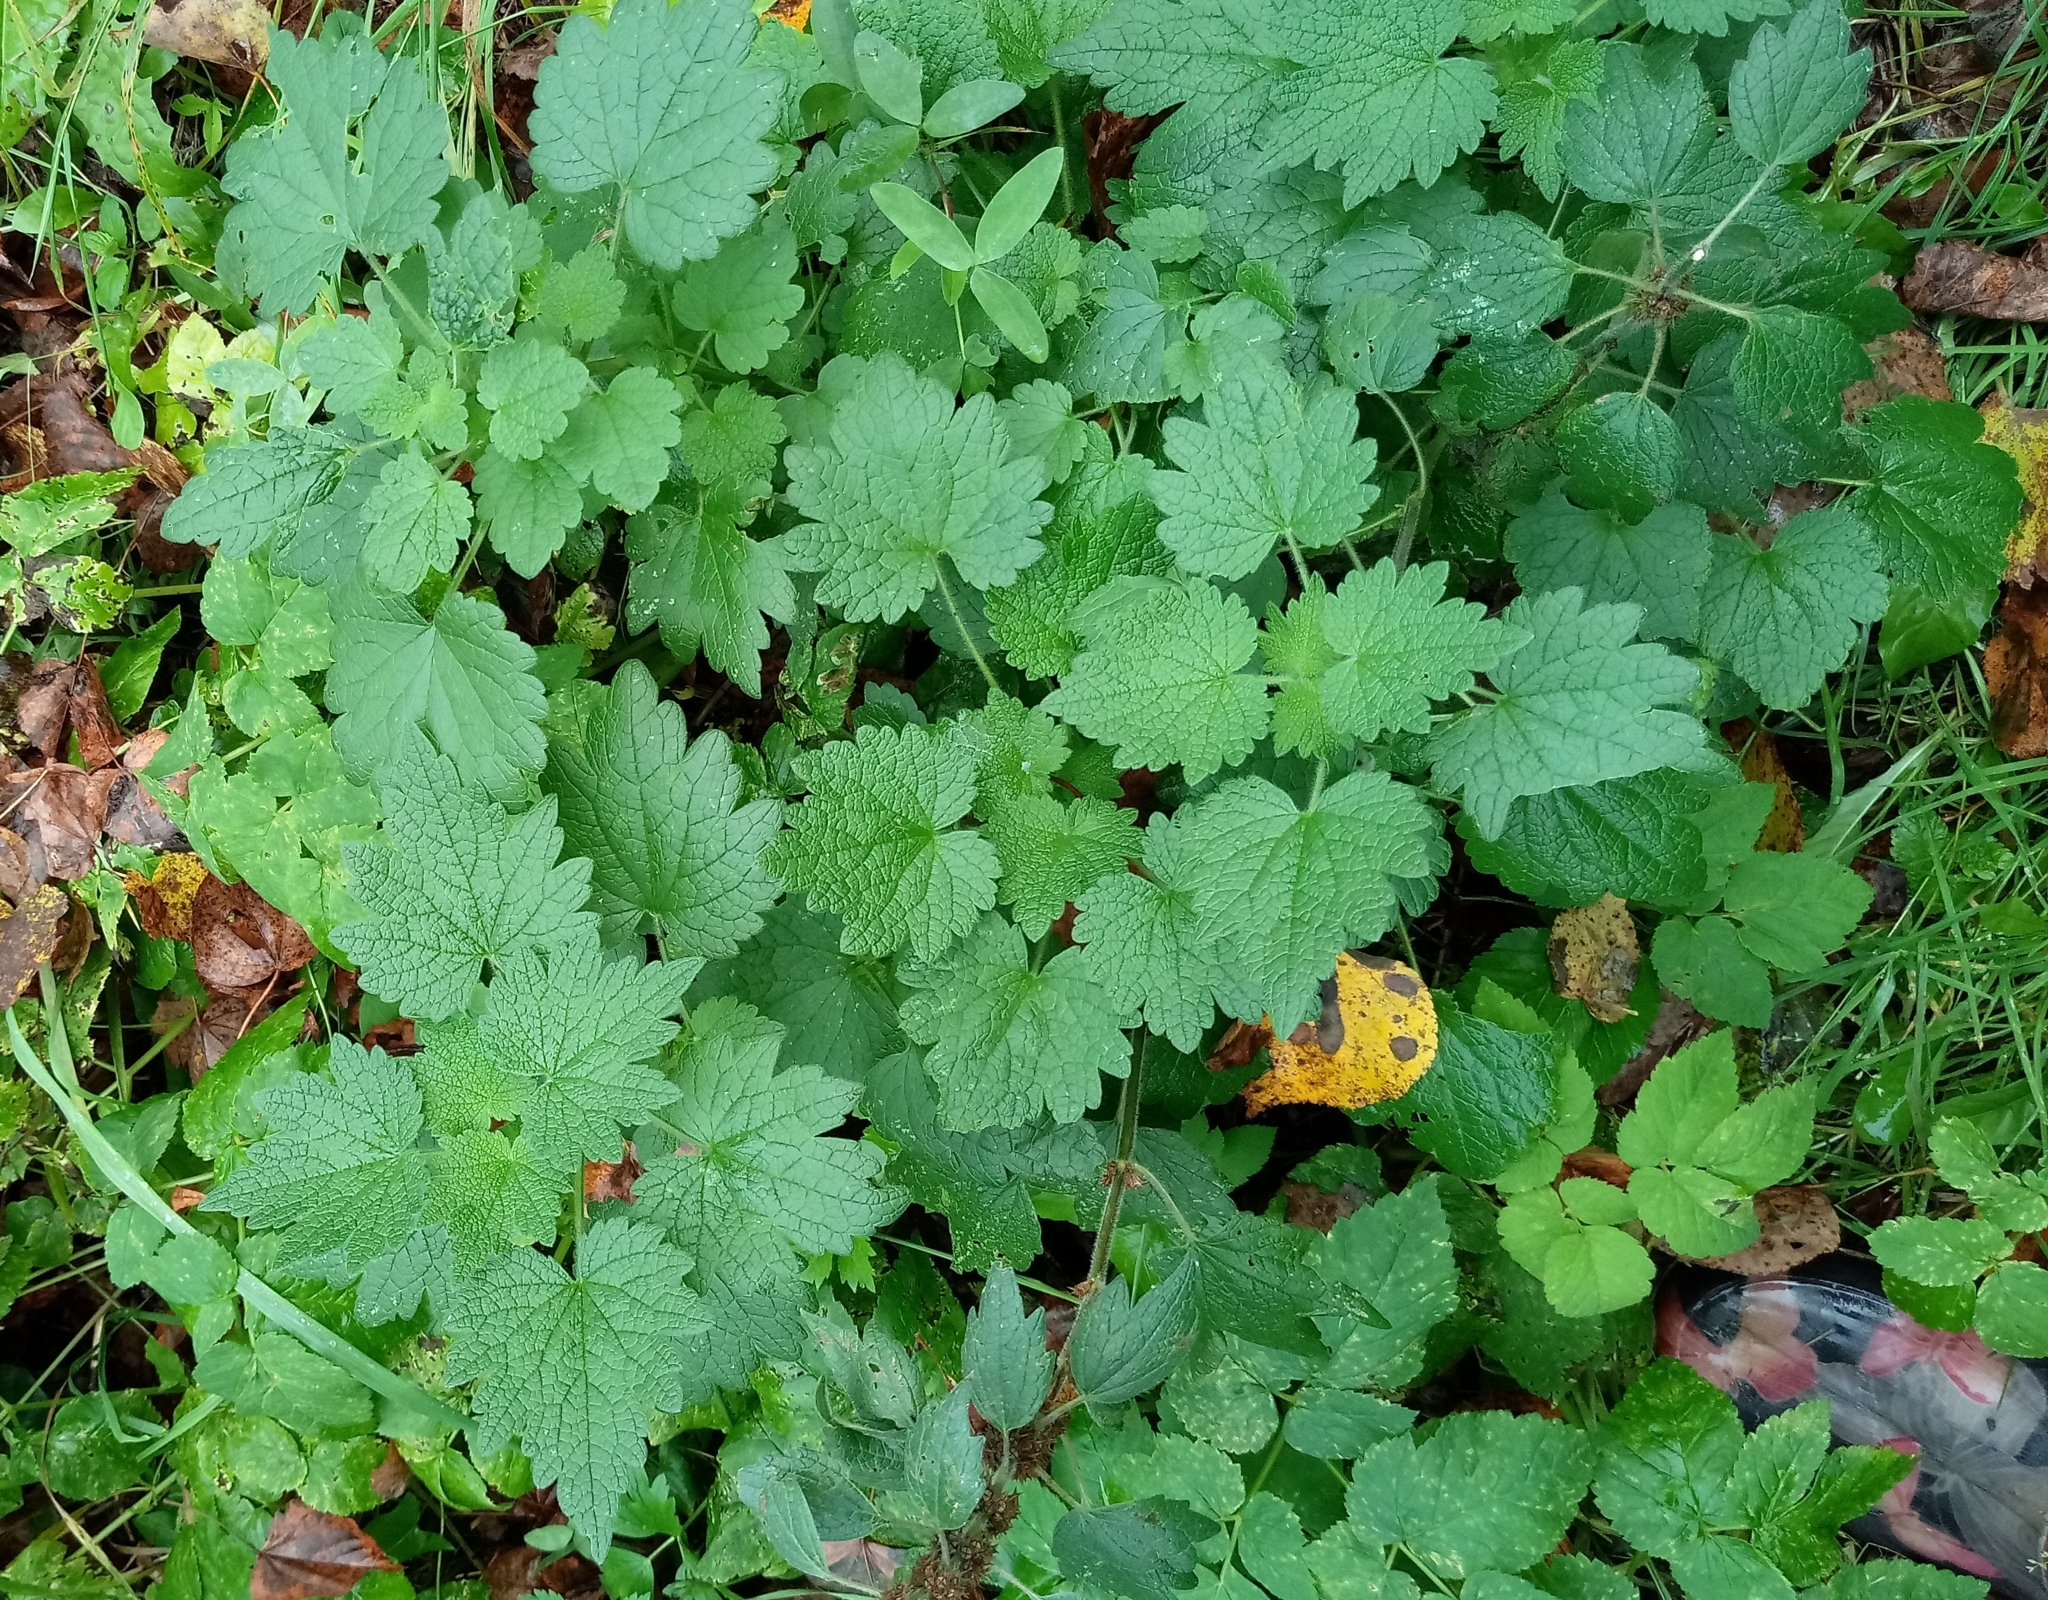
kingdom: Plantae
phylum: Tracheophyta
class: Magnoliopsida
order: Lamiales
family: Lamiaceae
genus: Leonurus
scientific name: Leonurus quinquelobatus
